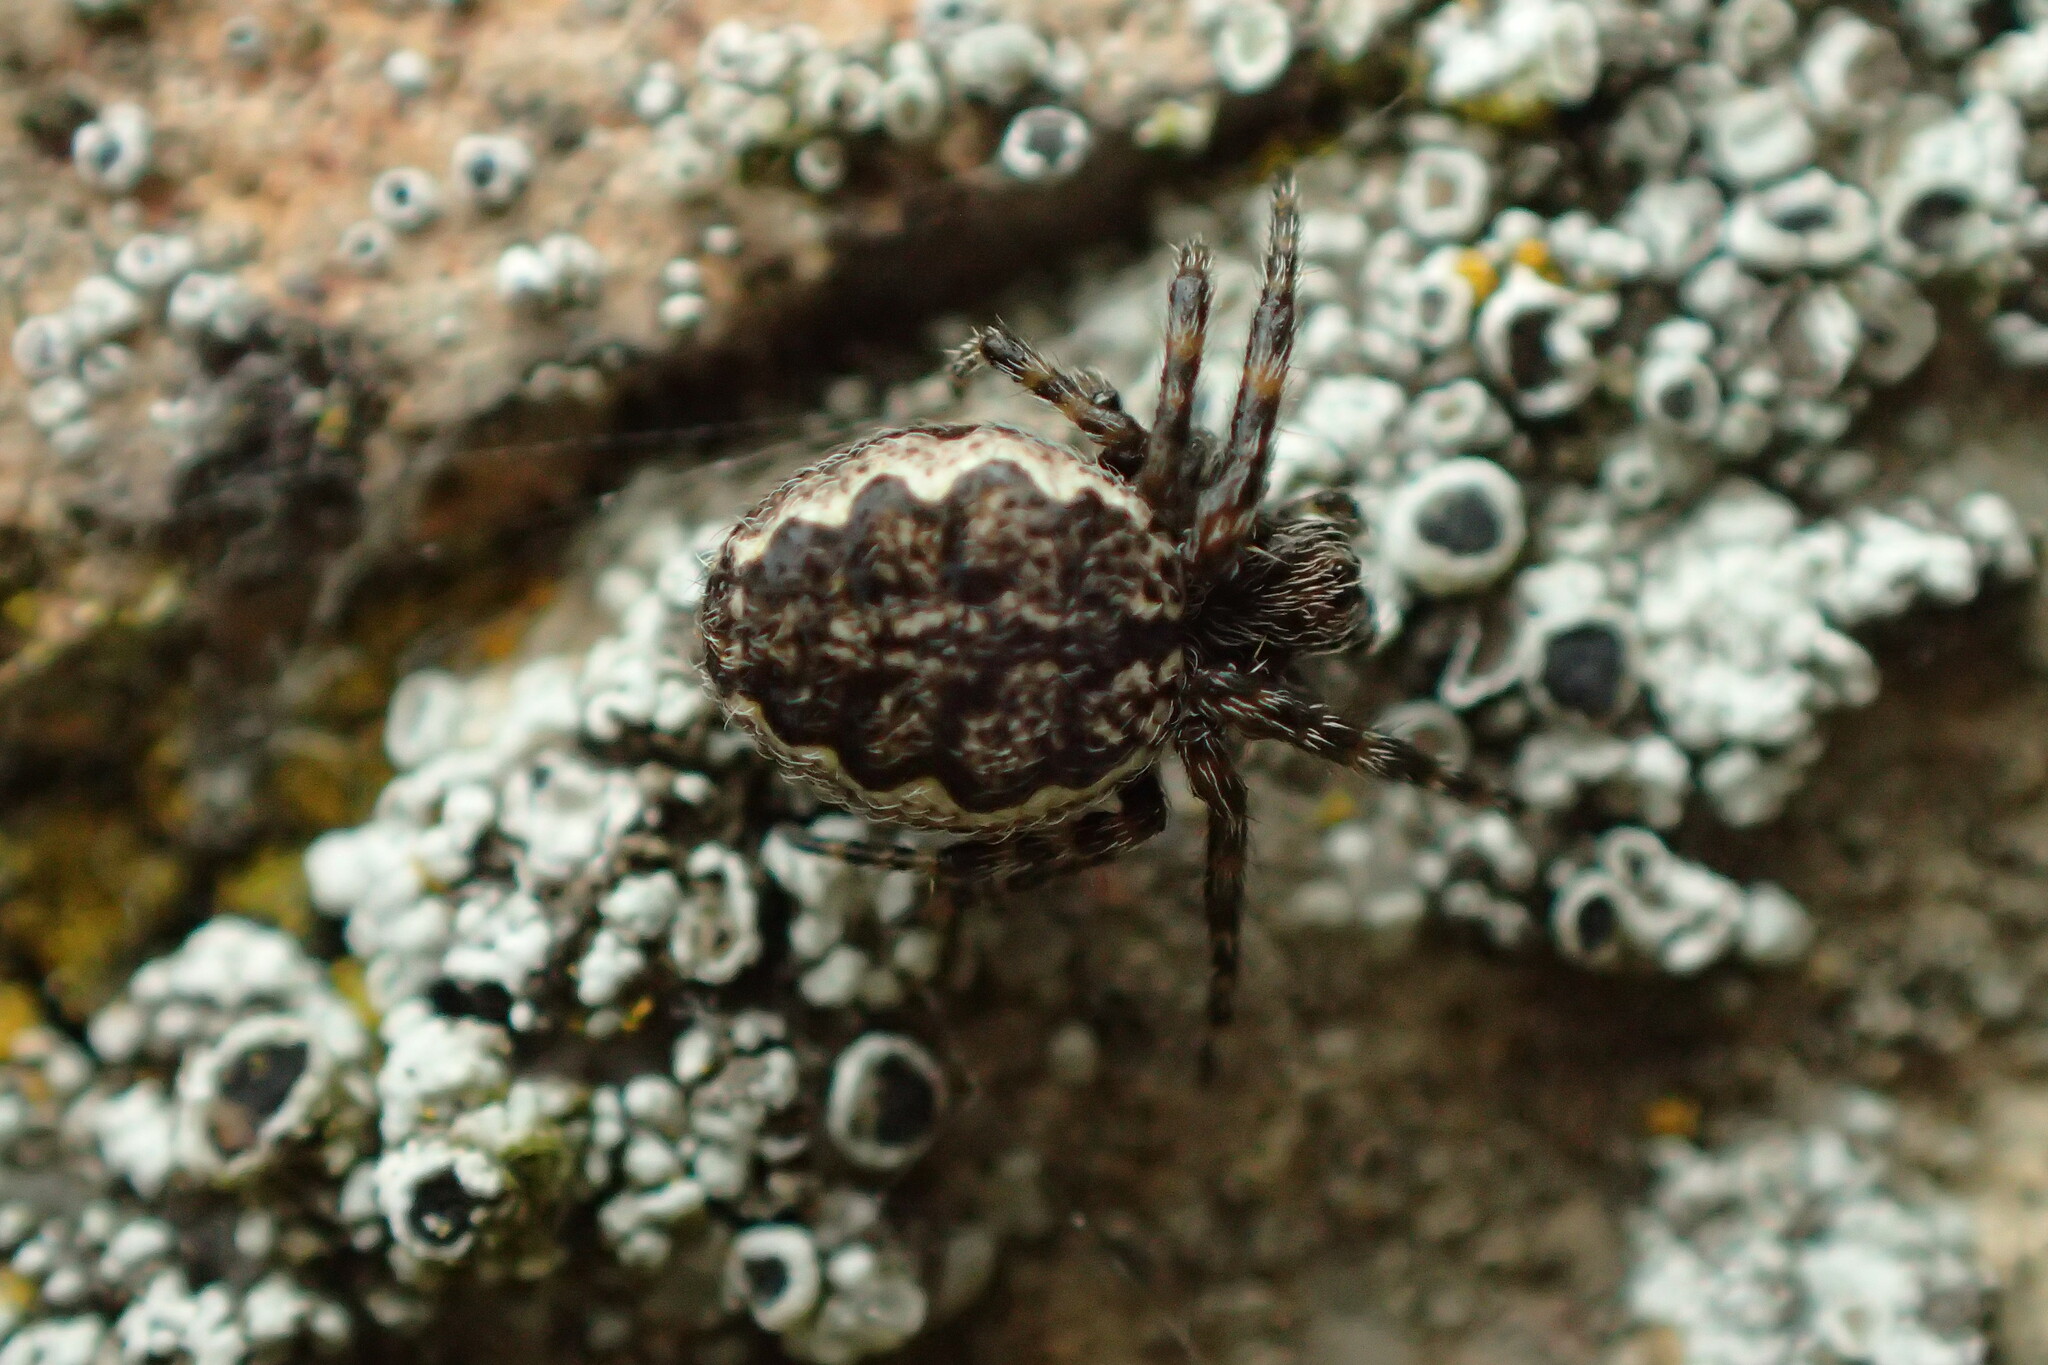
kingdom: Animalia
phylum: Arthropoda
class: Arachnida
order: Araneae
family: Araneidae
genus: Nuctenea
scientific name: Nuctenea umbratica
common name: Toad spider
